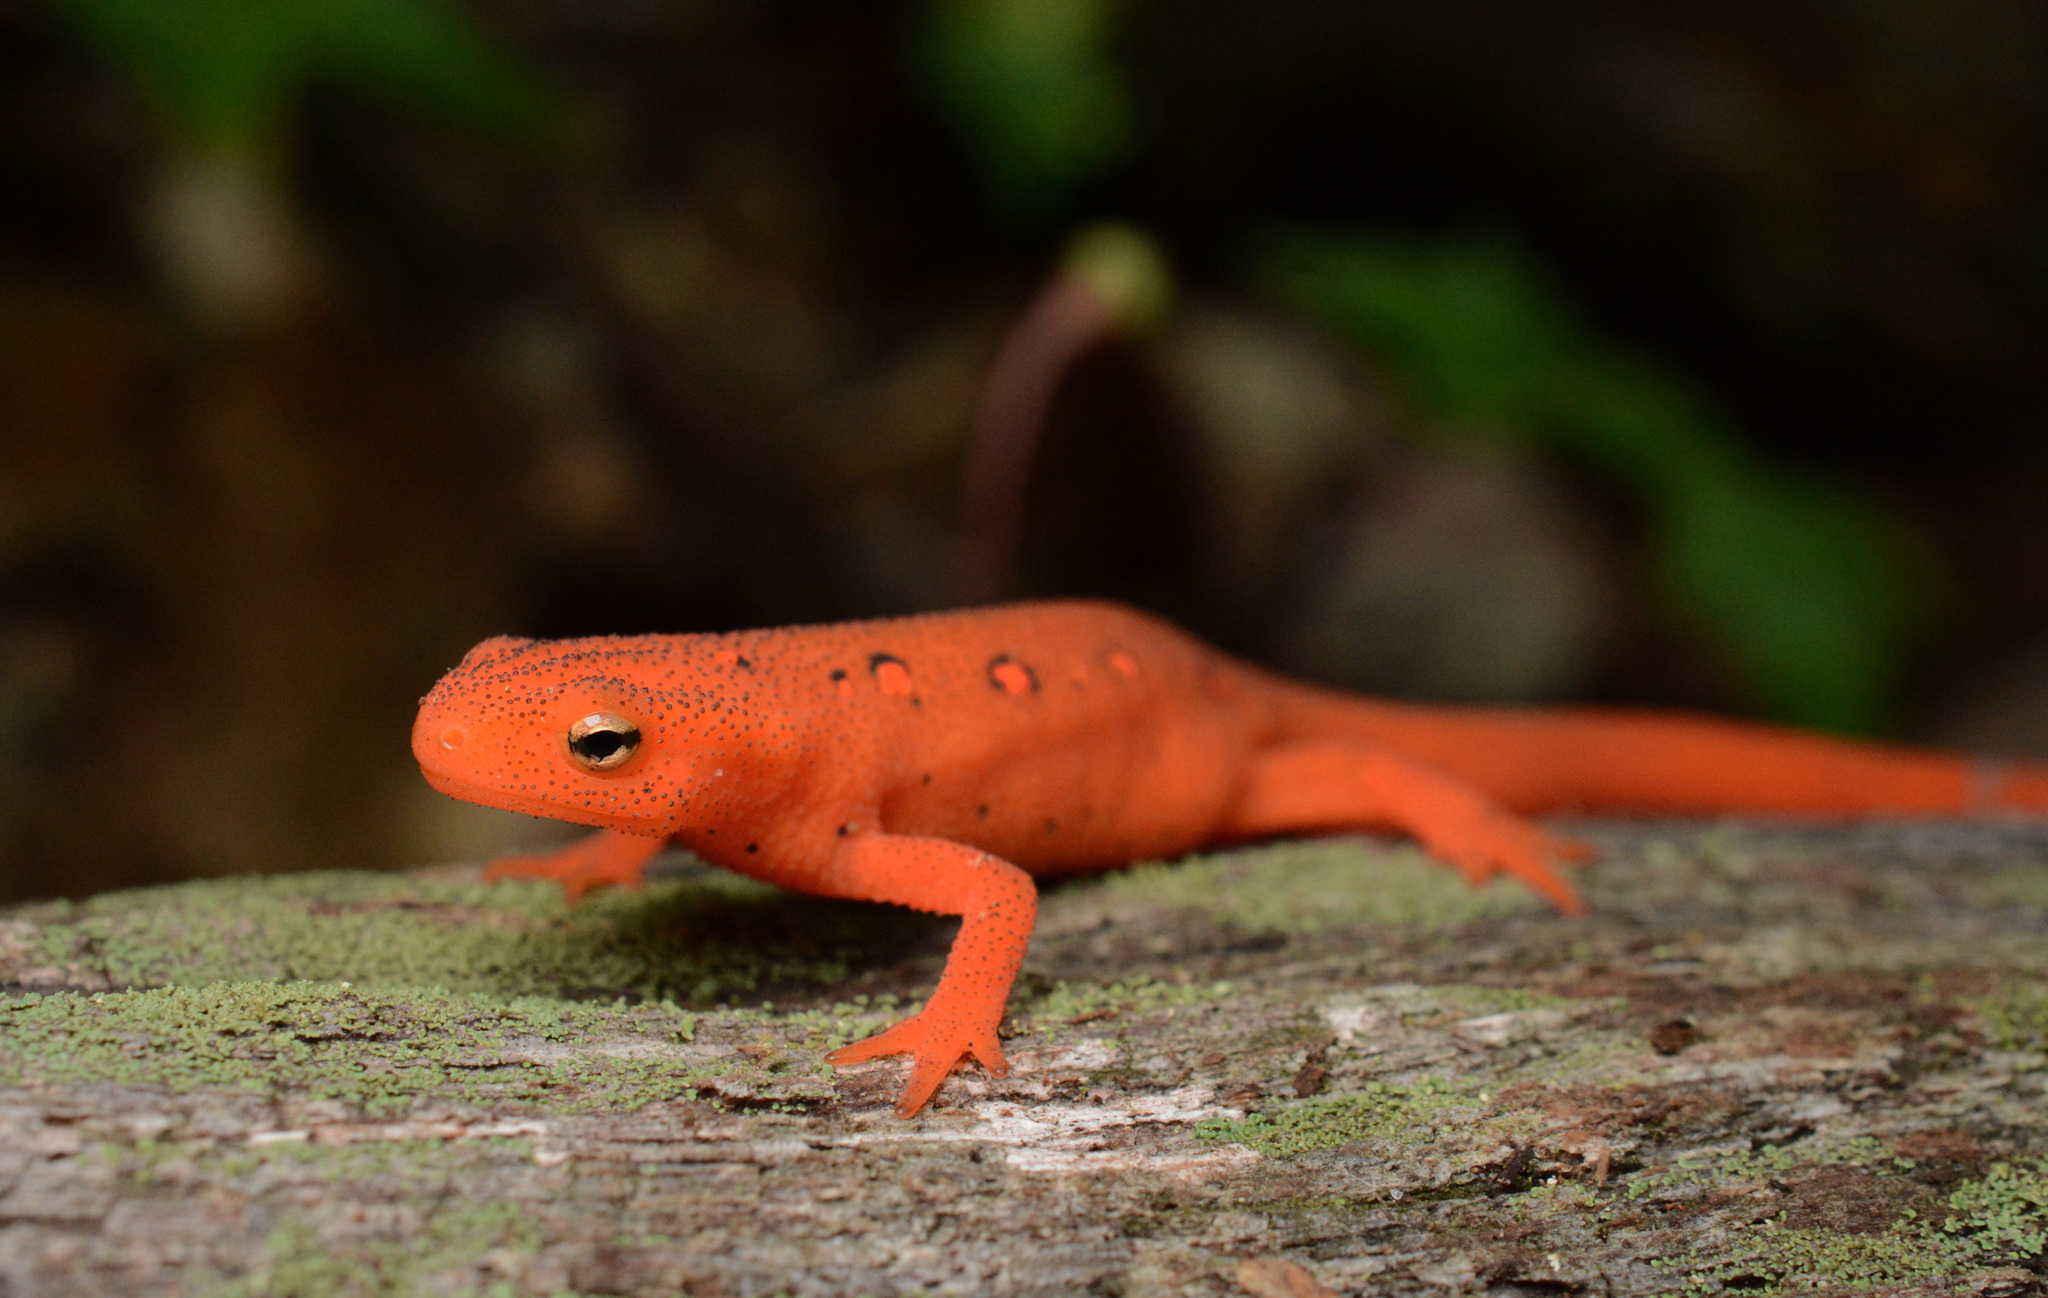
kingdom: Animalia
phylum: Chordata
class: Amphibia
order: Caudata
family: Salamandridae
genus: Notophthalmus
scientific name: Notophthalmus viridescens
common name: Eastern newt
